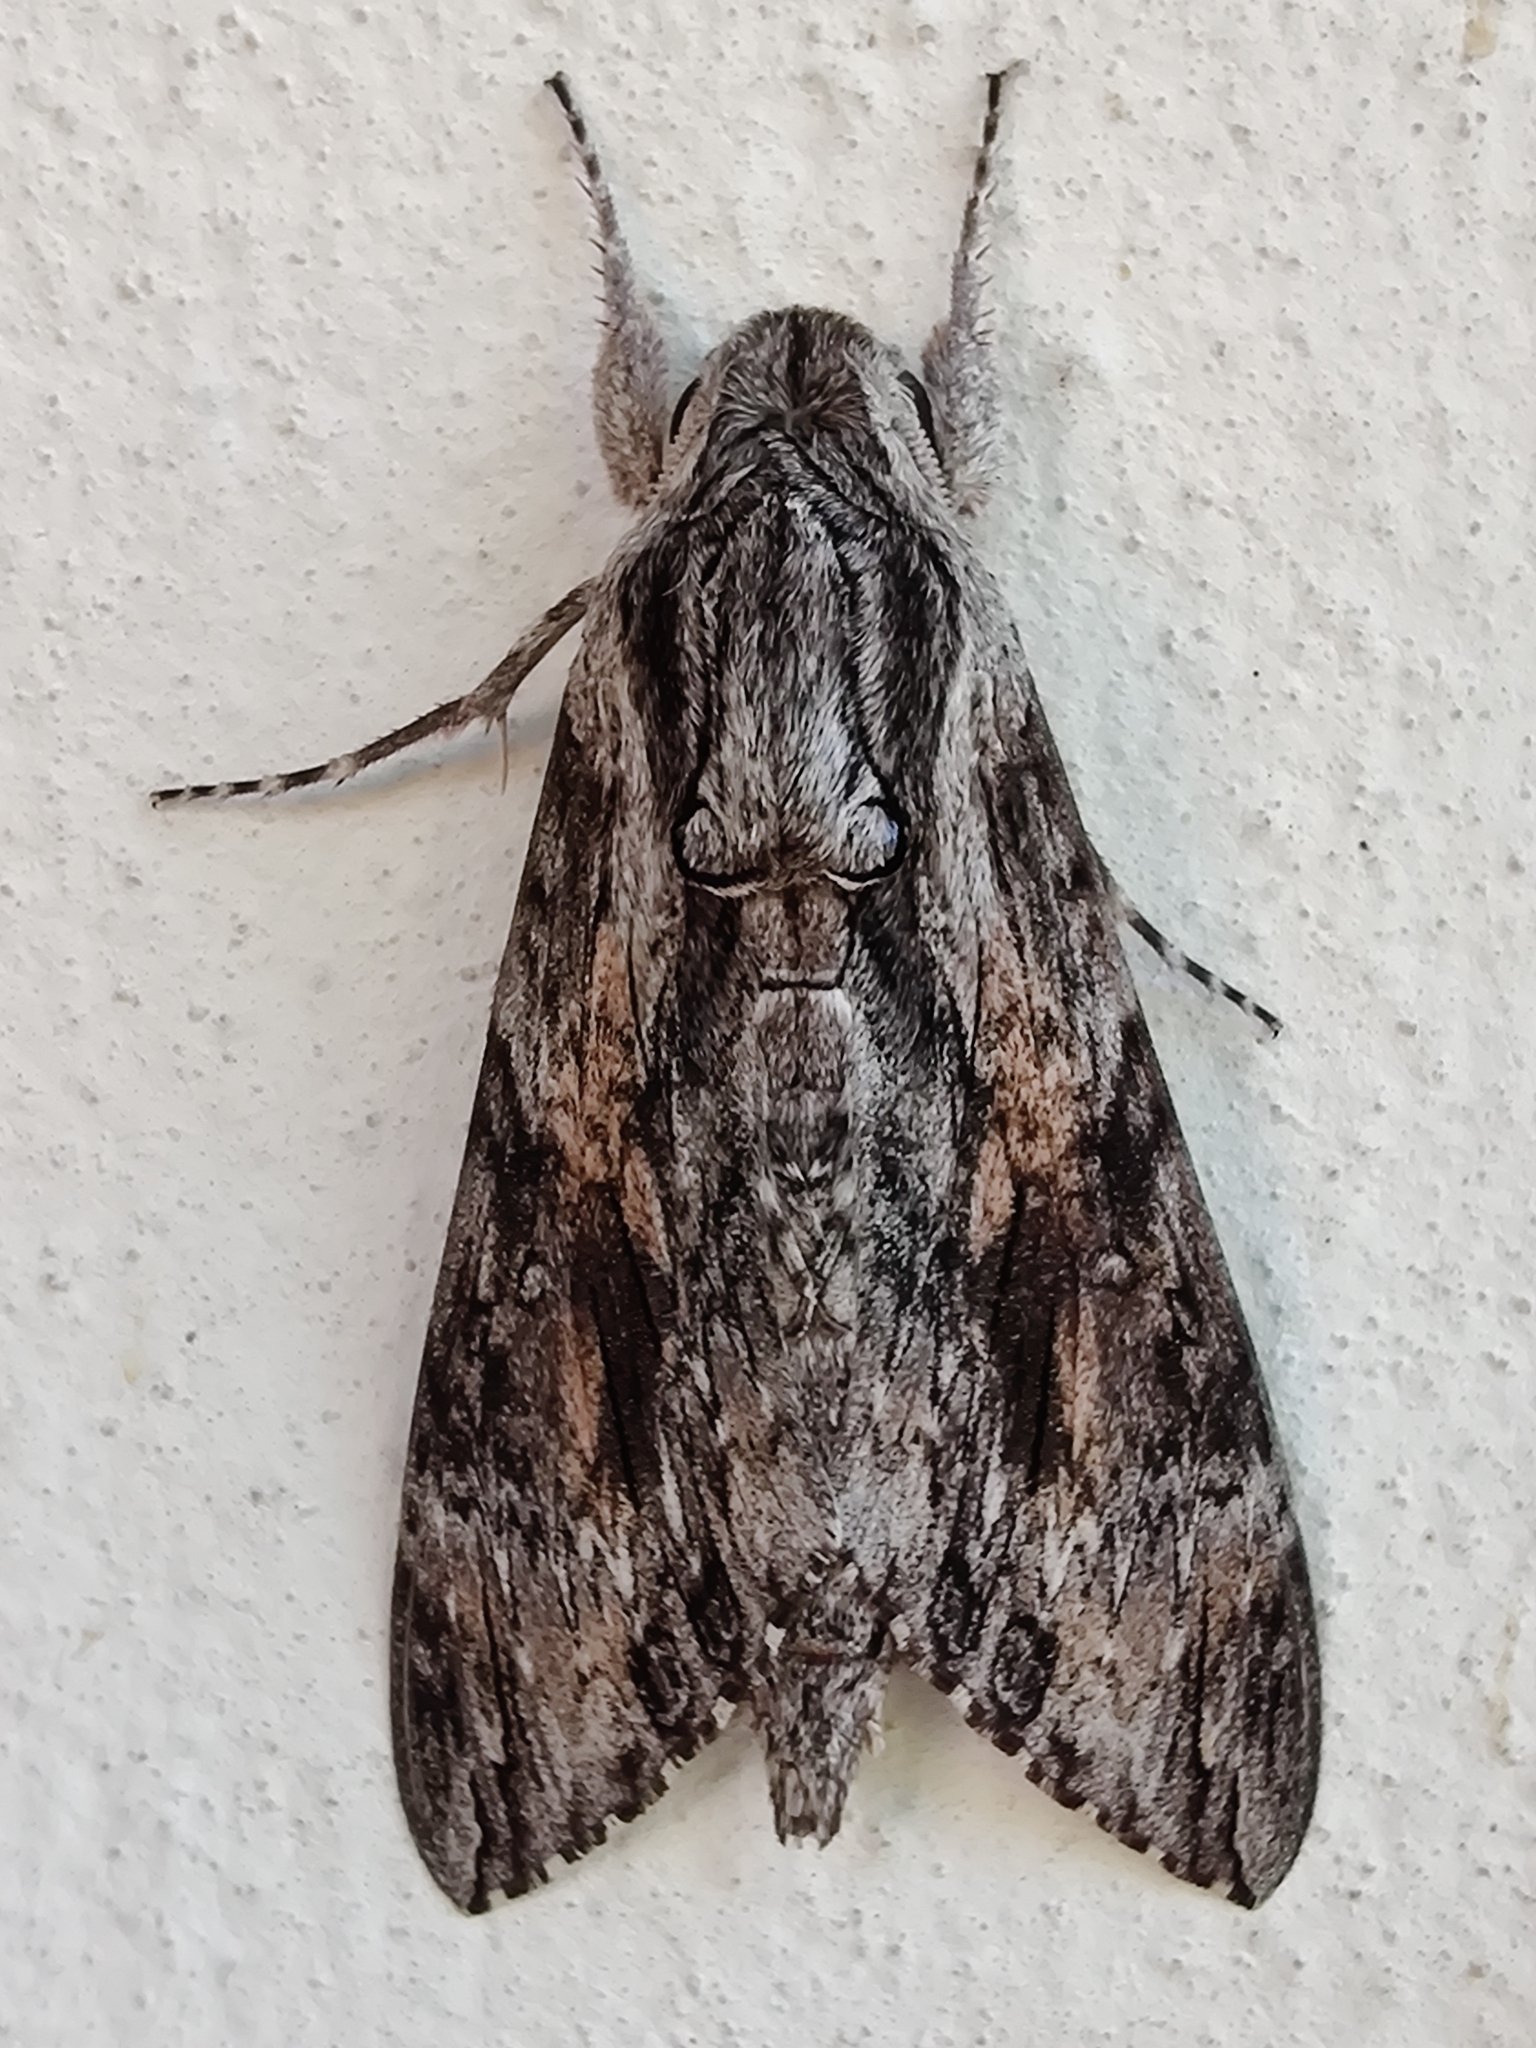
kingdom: Animalia
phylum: Arthropoda
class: Insecta
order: Lepidoptera
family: Sphingidae
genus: Agrius
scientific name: Agrius convolvuli
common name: Convolvulus hawkmoth
